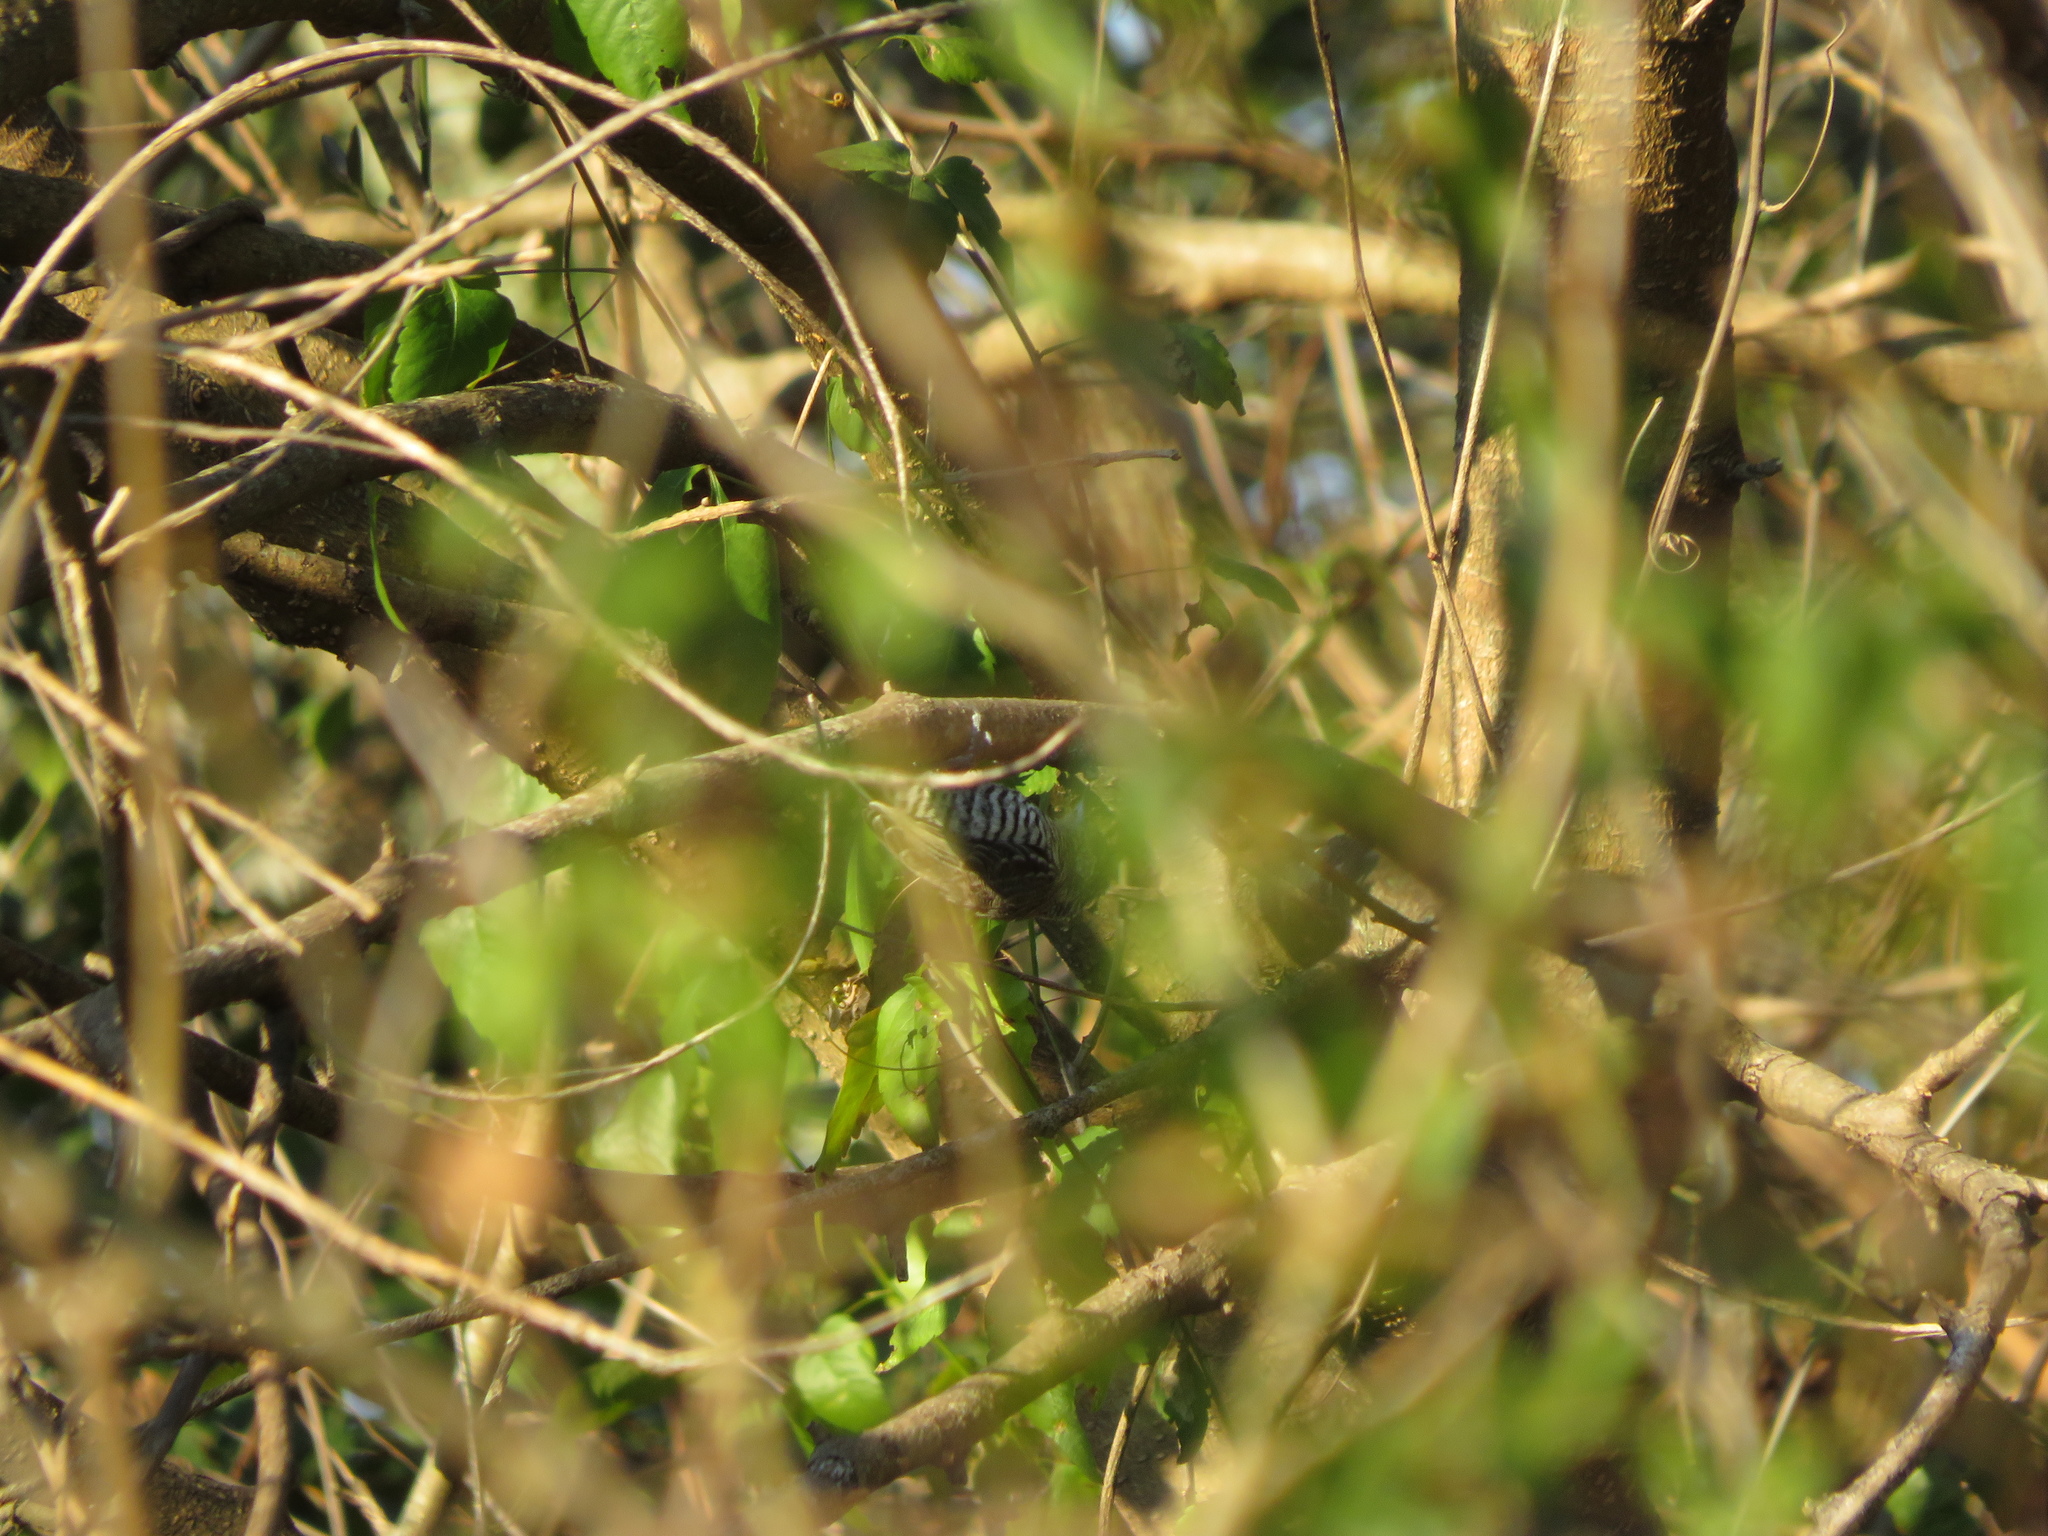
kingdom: Animalia
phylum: Chordata
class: Aves
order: Piciformes
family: Picidae
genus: Picumnus
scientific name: Picumnus cirratus
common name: White-barred piculet
